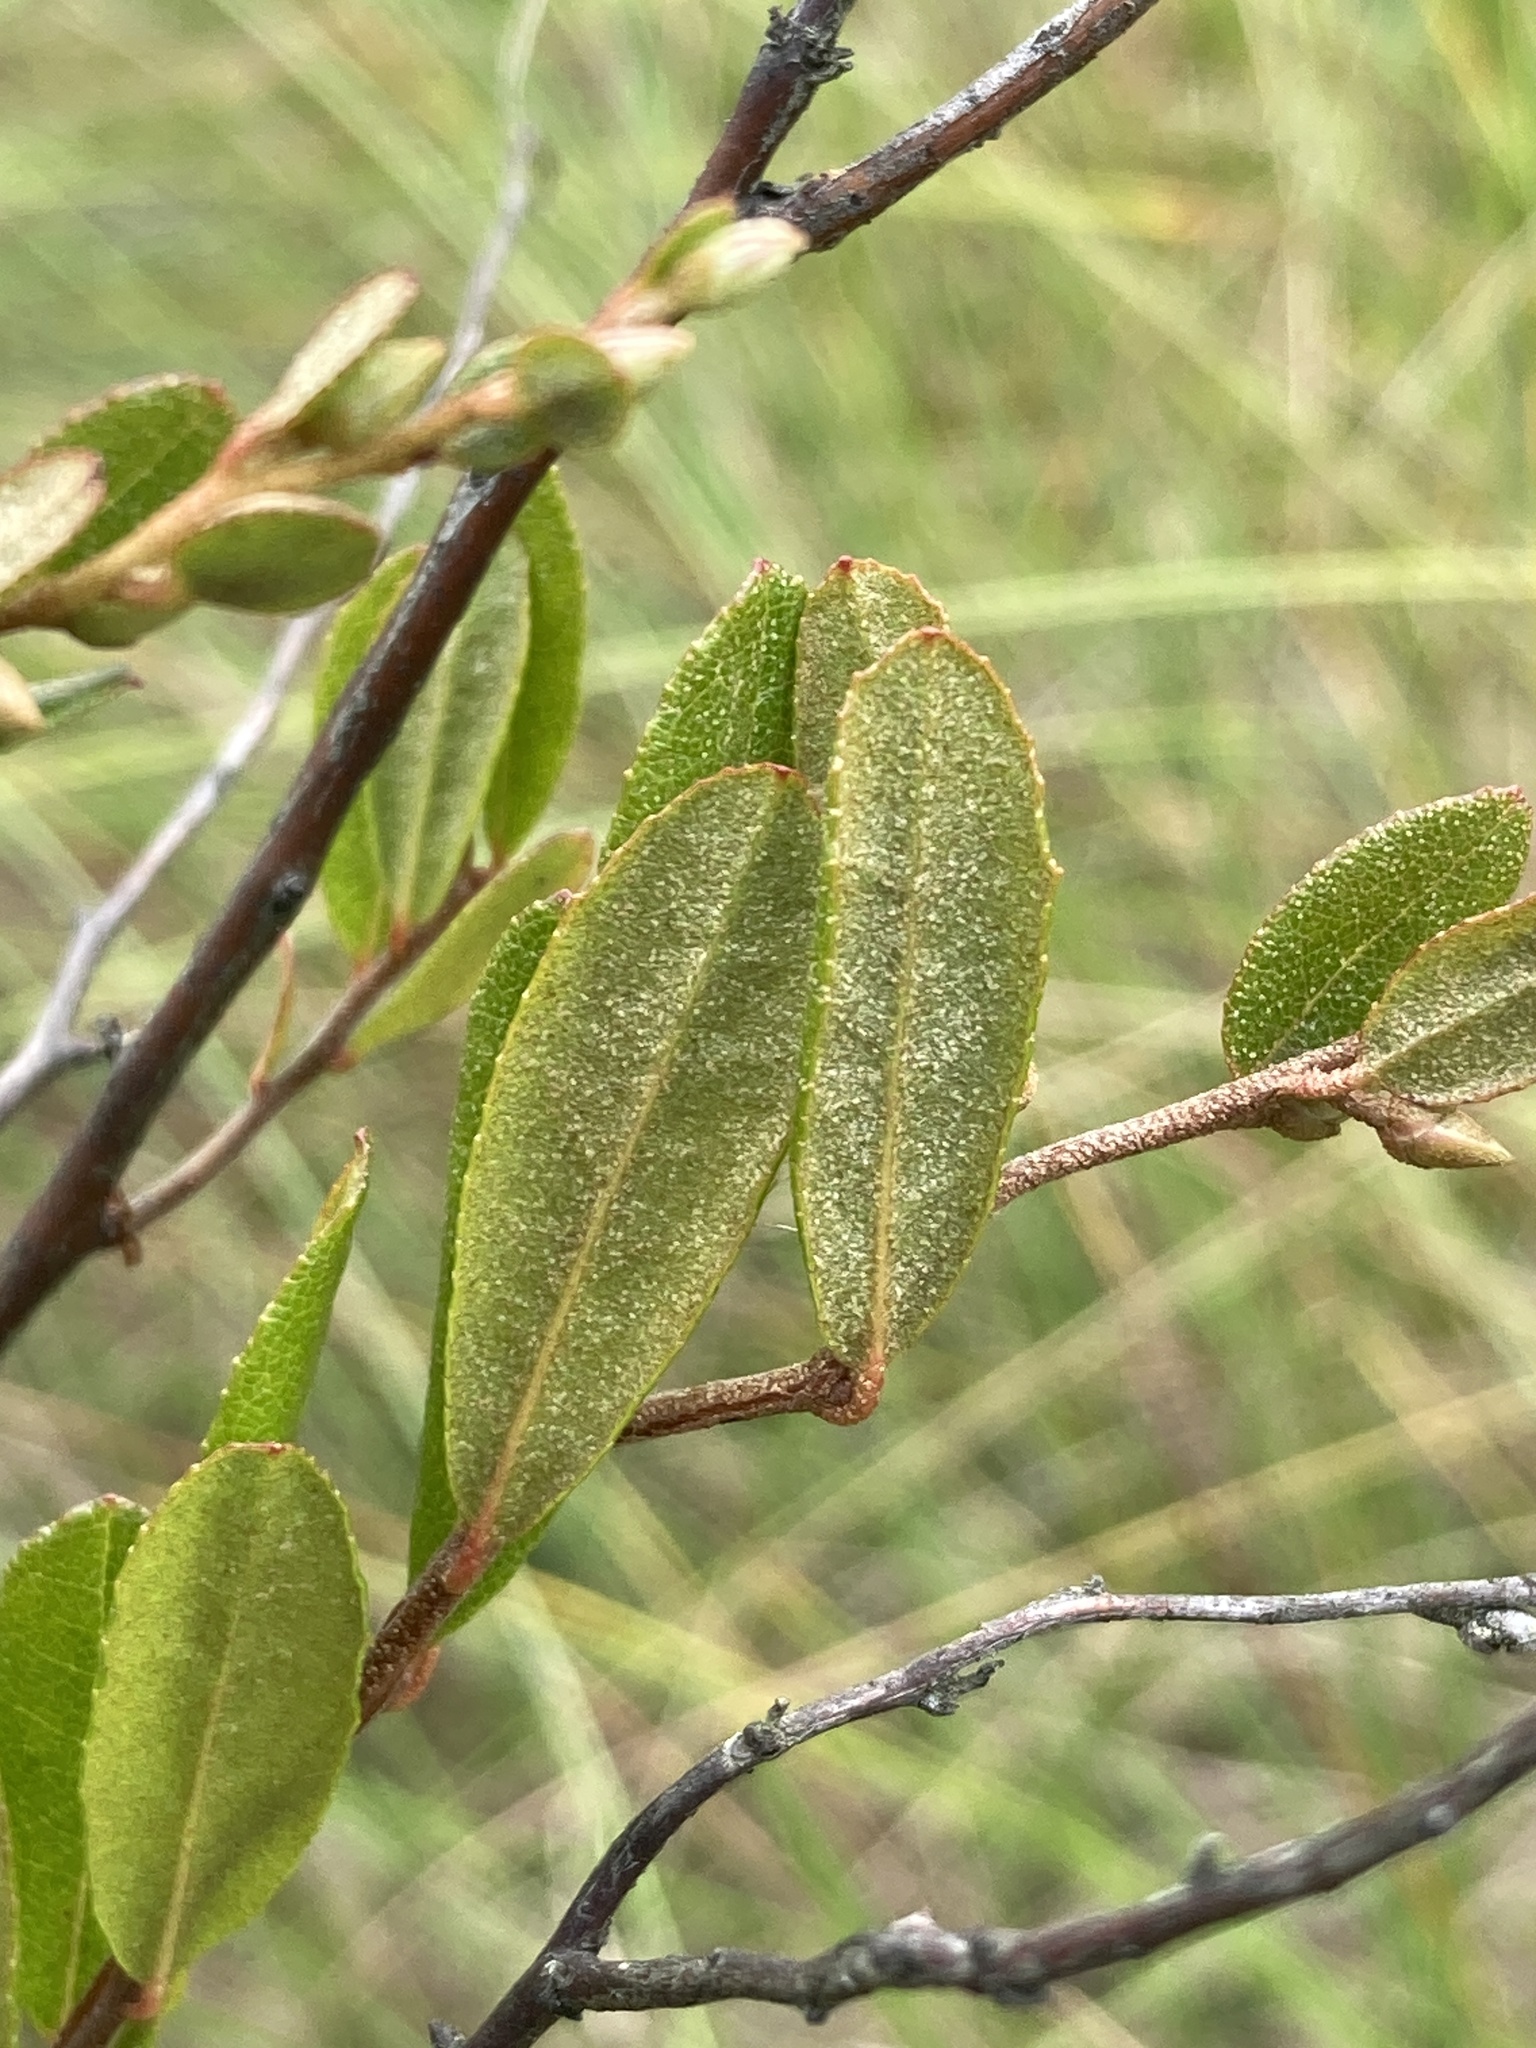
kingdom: Plantae
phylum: Tracheophyta
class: Magnoliopsida
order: Ericales
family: Ericaceae
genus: Chamaedaphne
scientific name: Chamaedaphne calyculata
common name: Leatherleaf
